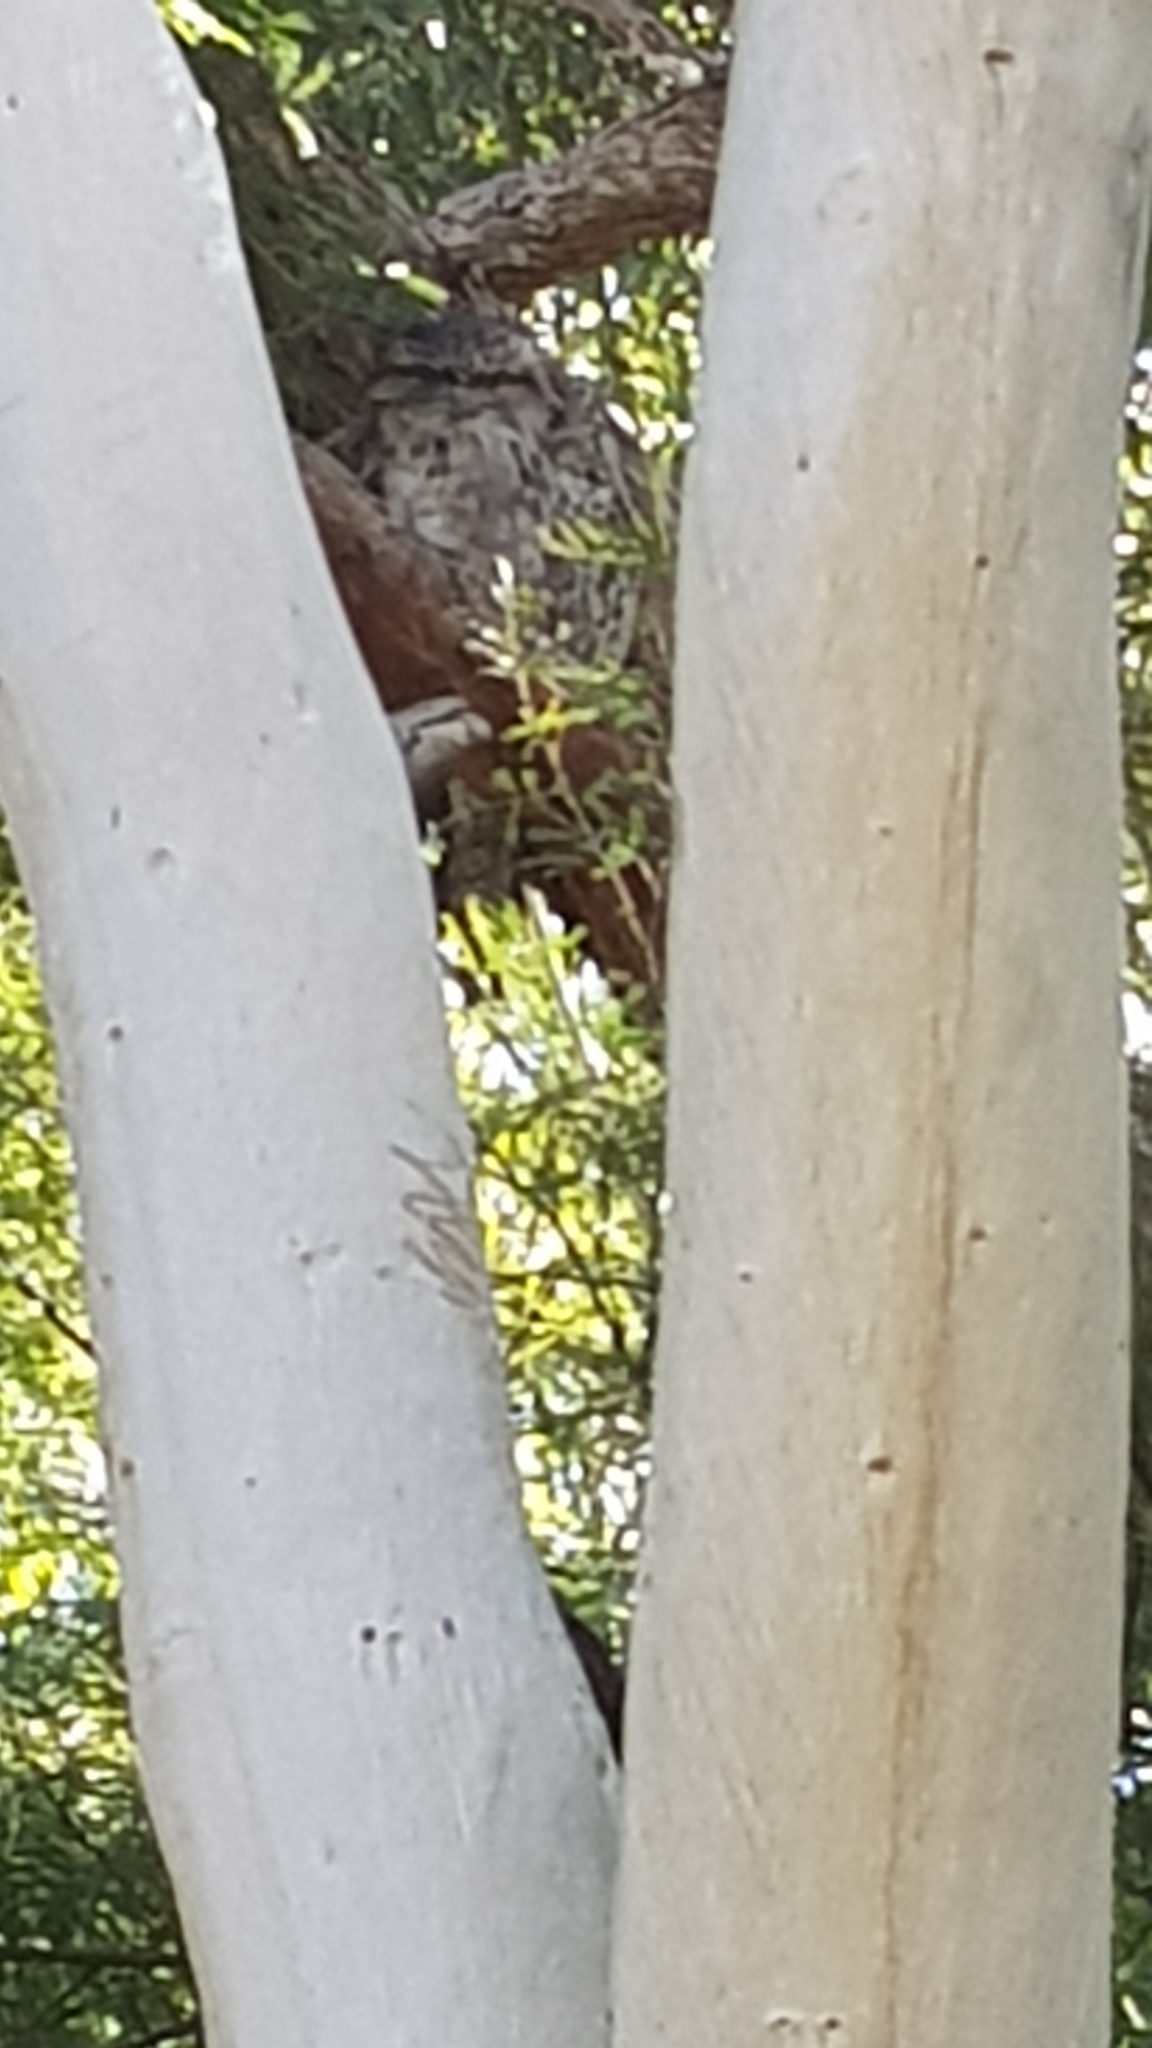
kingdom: Animalia
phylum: Chordata
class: Aves
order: Caprimulgiformes
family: Podargidae
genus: Podargus
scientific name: Podargus strigoides
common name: Tawny frogmouth
